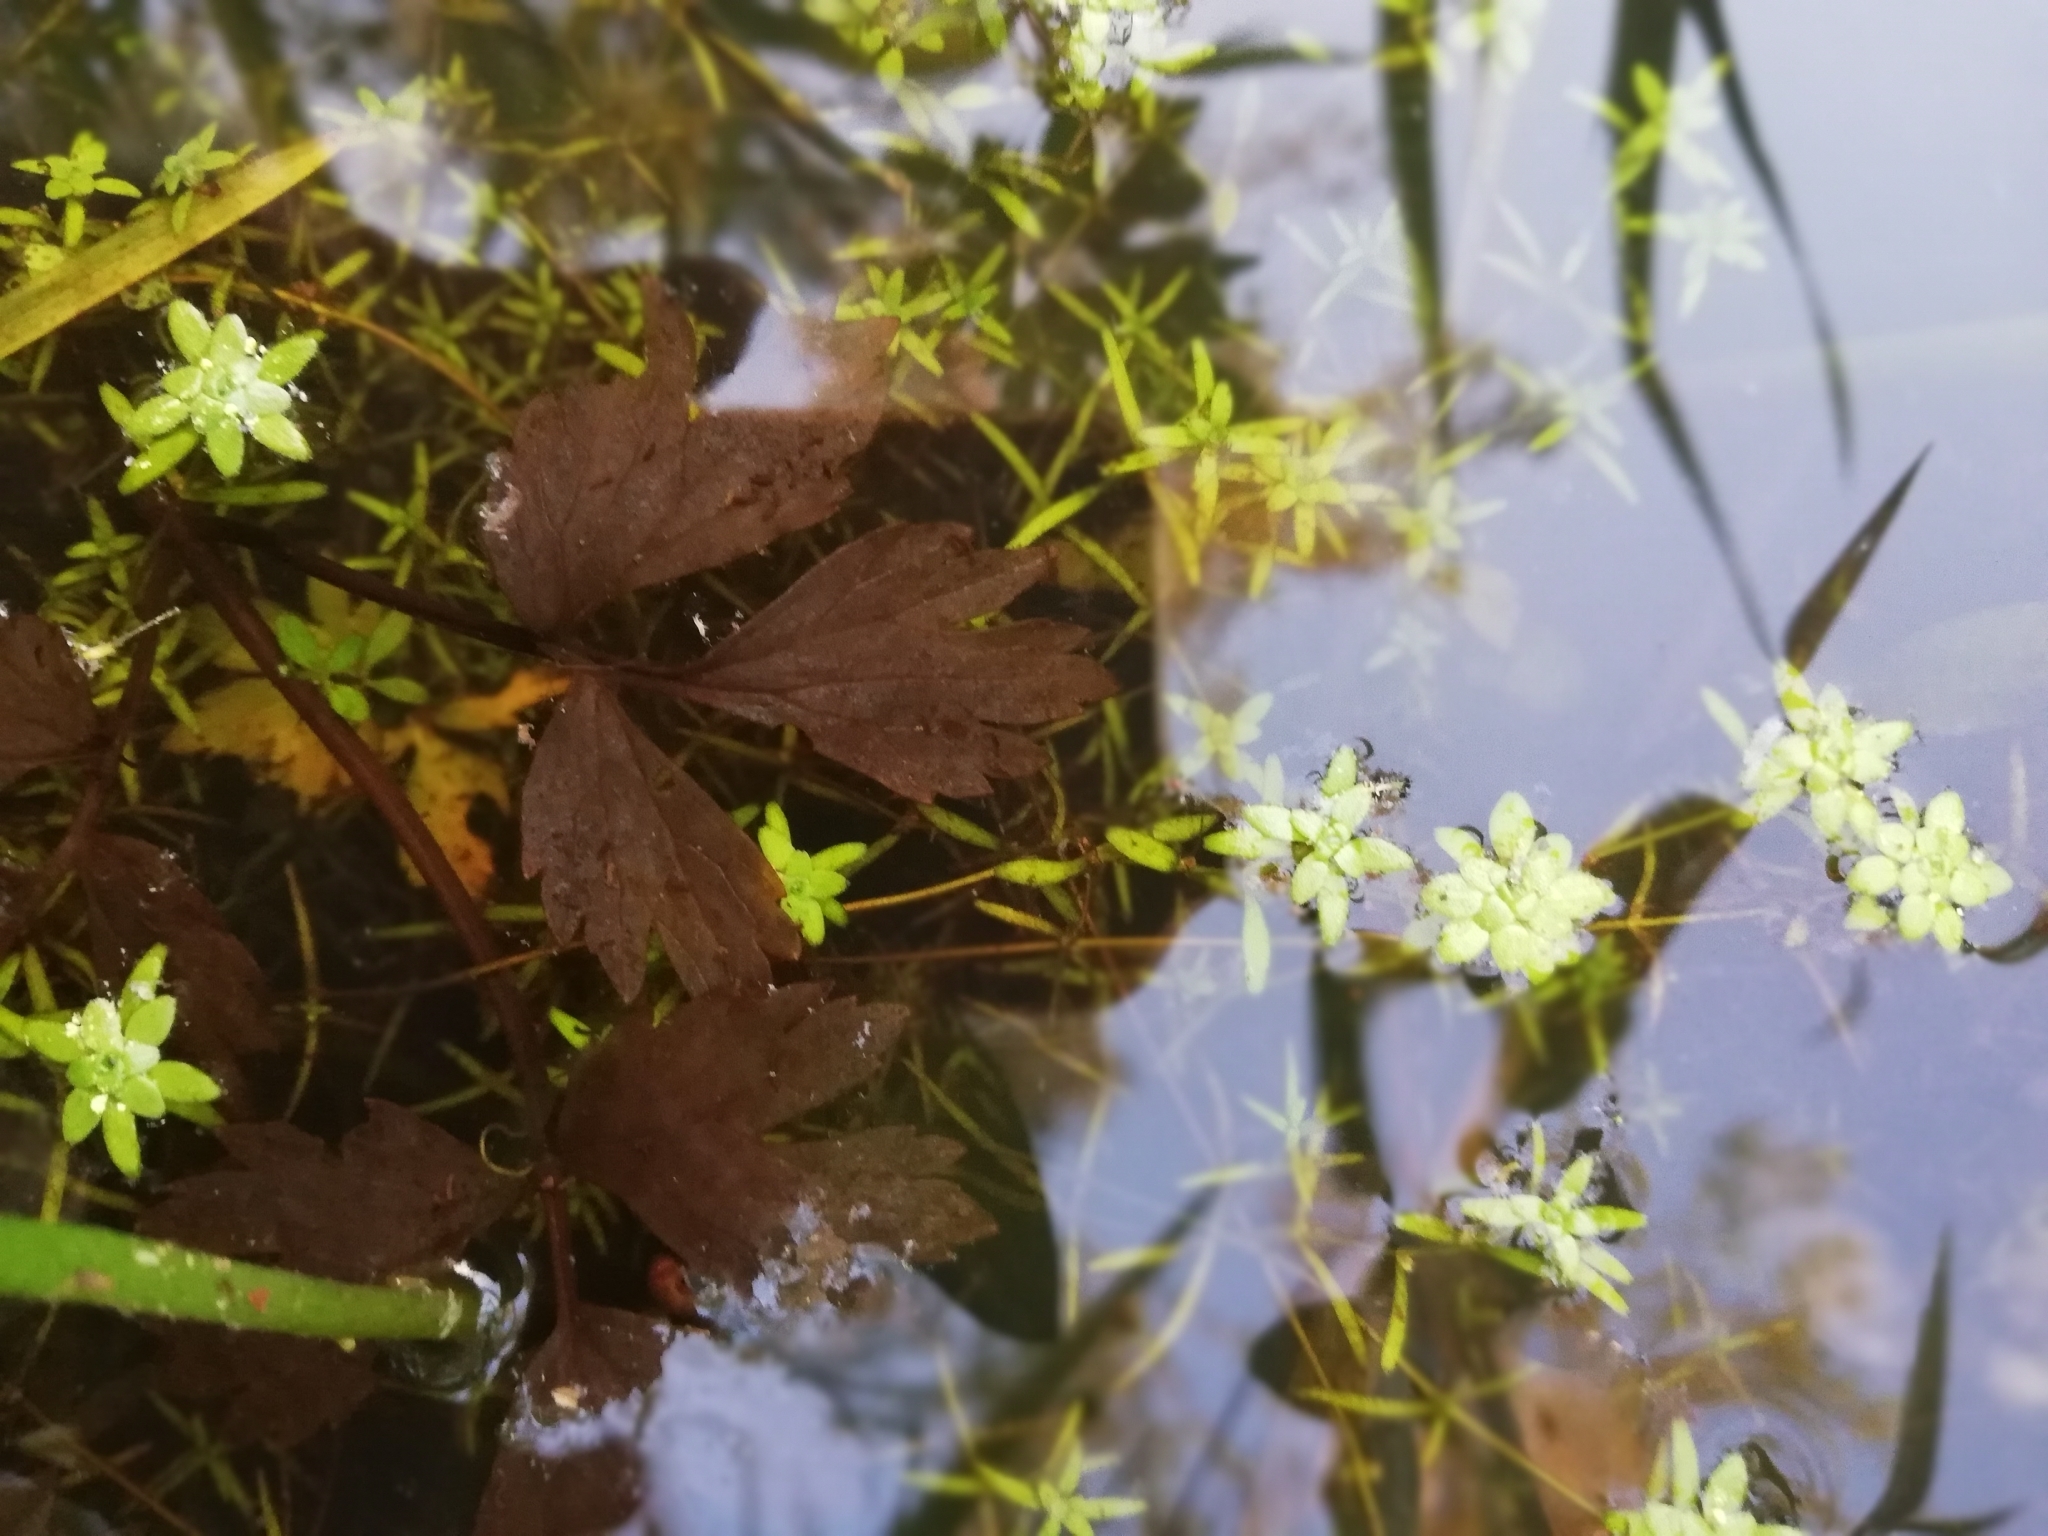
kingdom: Plantae
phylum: Tracheophyta
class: Magnoliopsida
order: Lamiales
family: Plantaginaceae
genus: Callitriche
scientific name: Callitriche palustris
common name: Spring water-starwort
